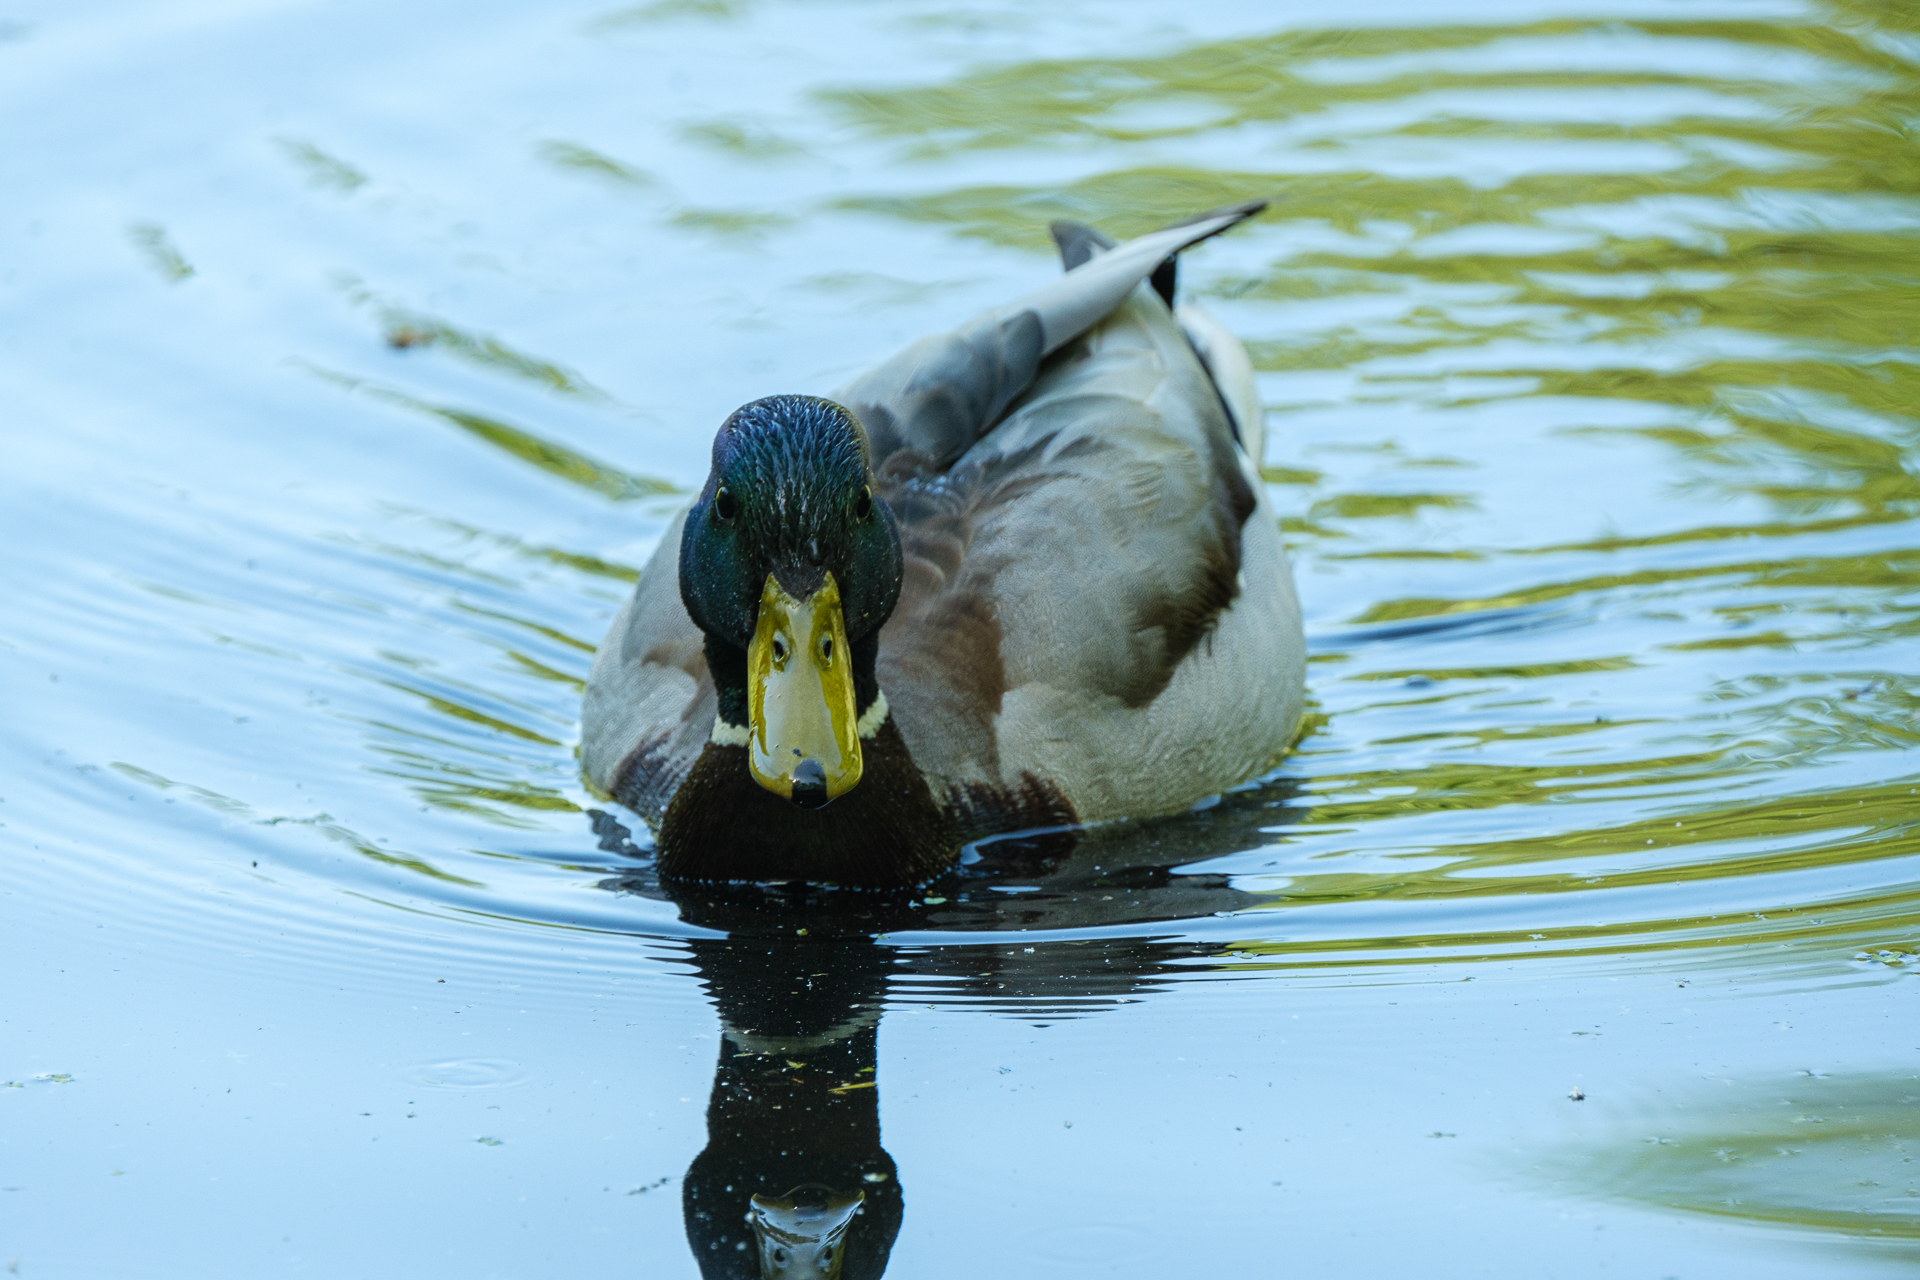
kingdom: Animalia
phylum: Chordata
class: Aves
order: Anseriformes
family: Anatidae
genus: Anas
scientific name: Anas platyrhynchos
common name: Mallard
